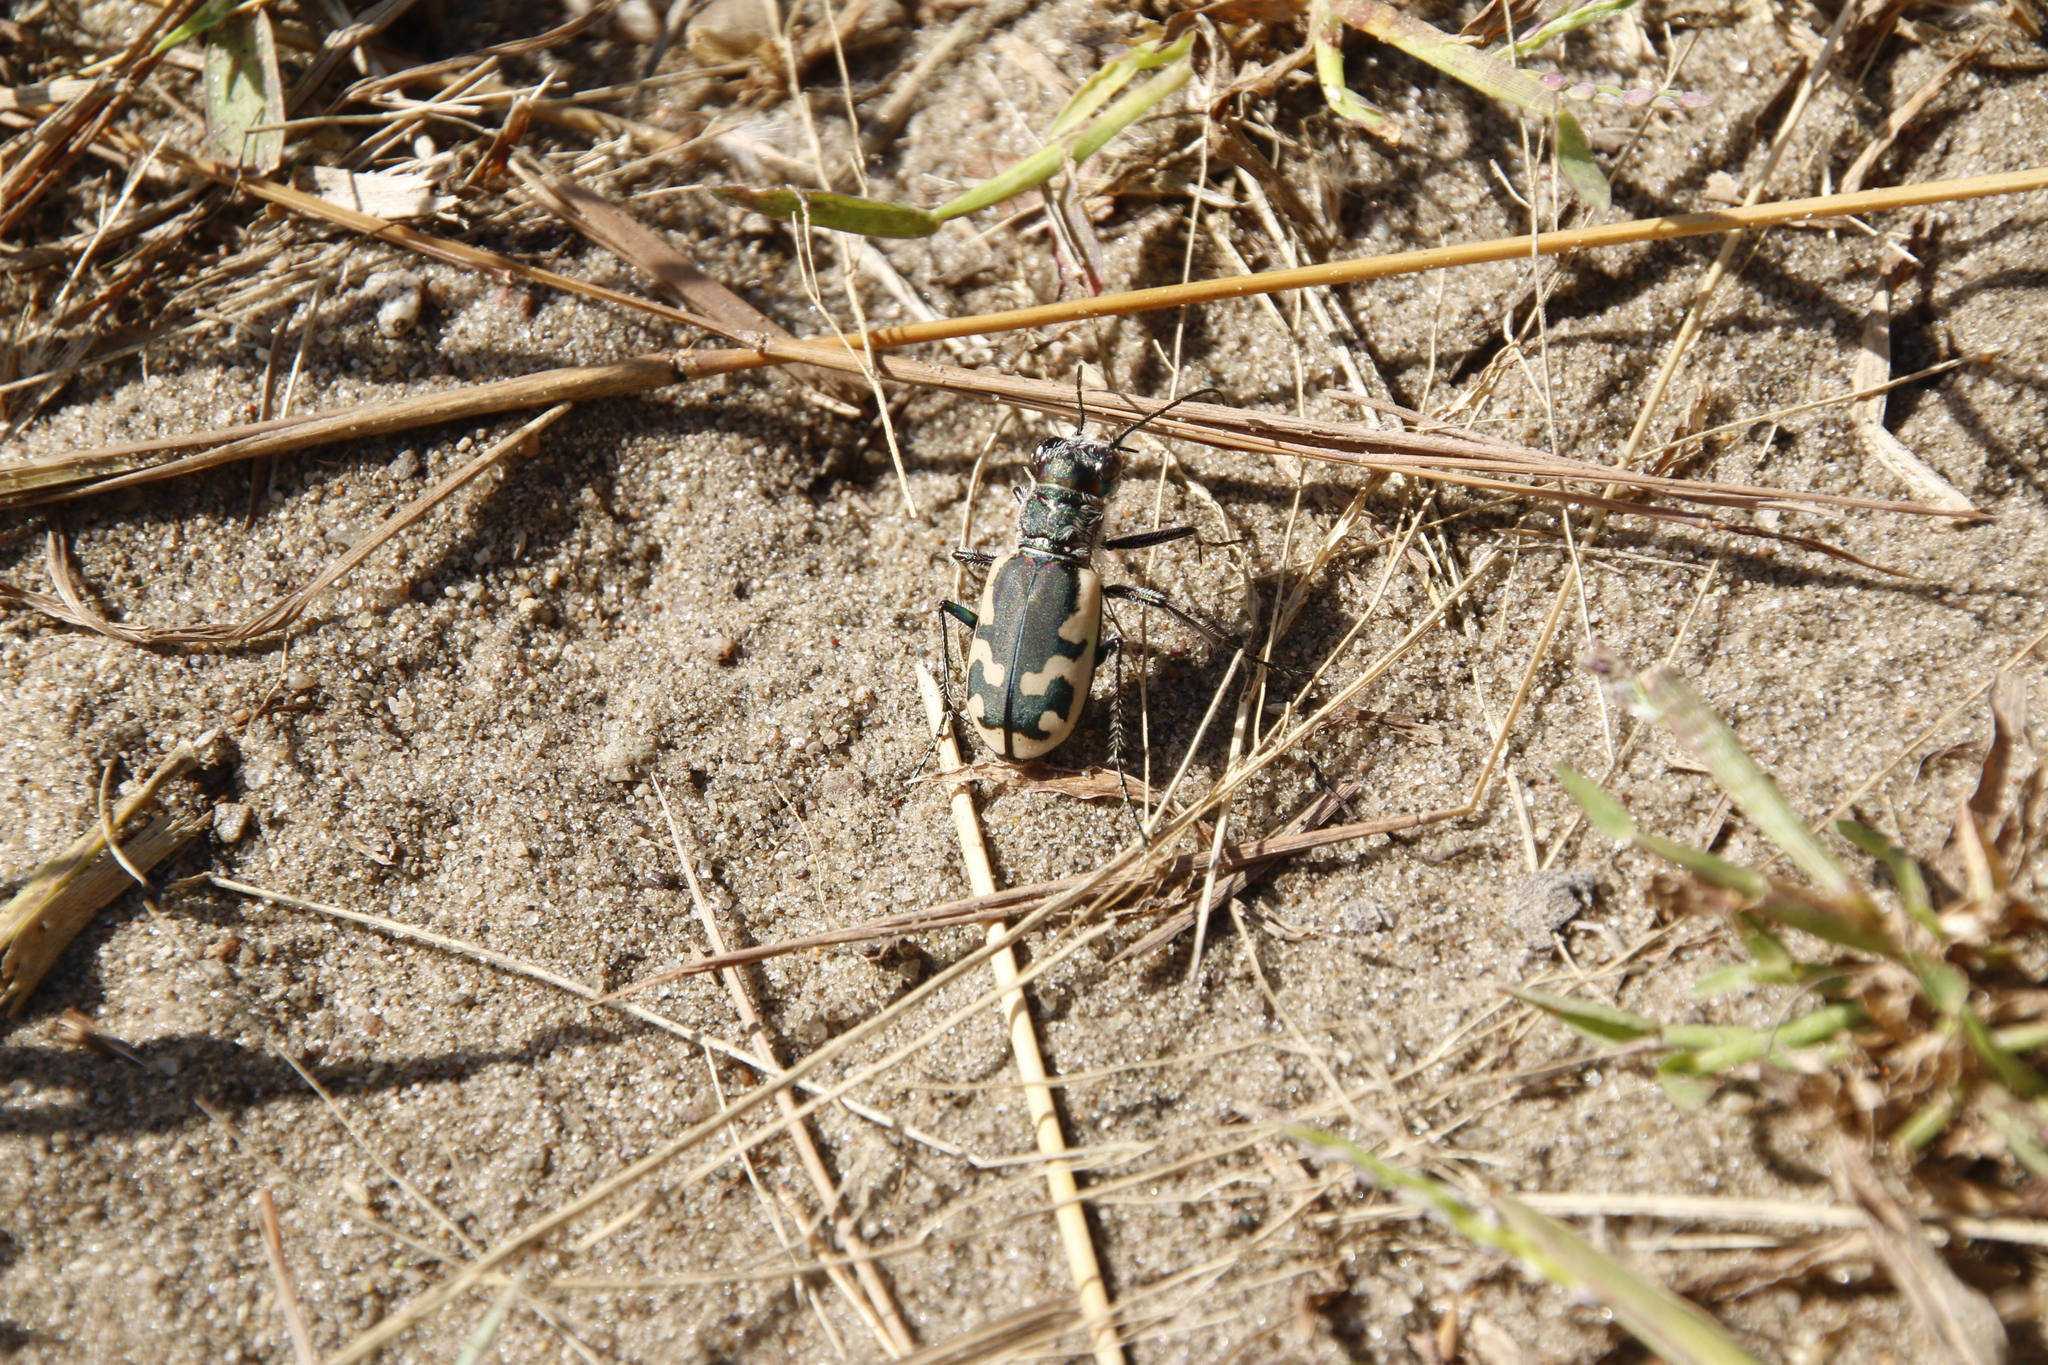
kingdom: Animalia
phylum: Arthropoda
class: Insecta
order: Coleoptera
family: Carabidae
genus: Cicindela
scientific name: Cicindela formosa
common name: Big sand tiger beetle
